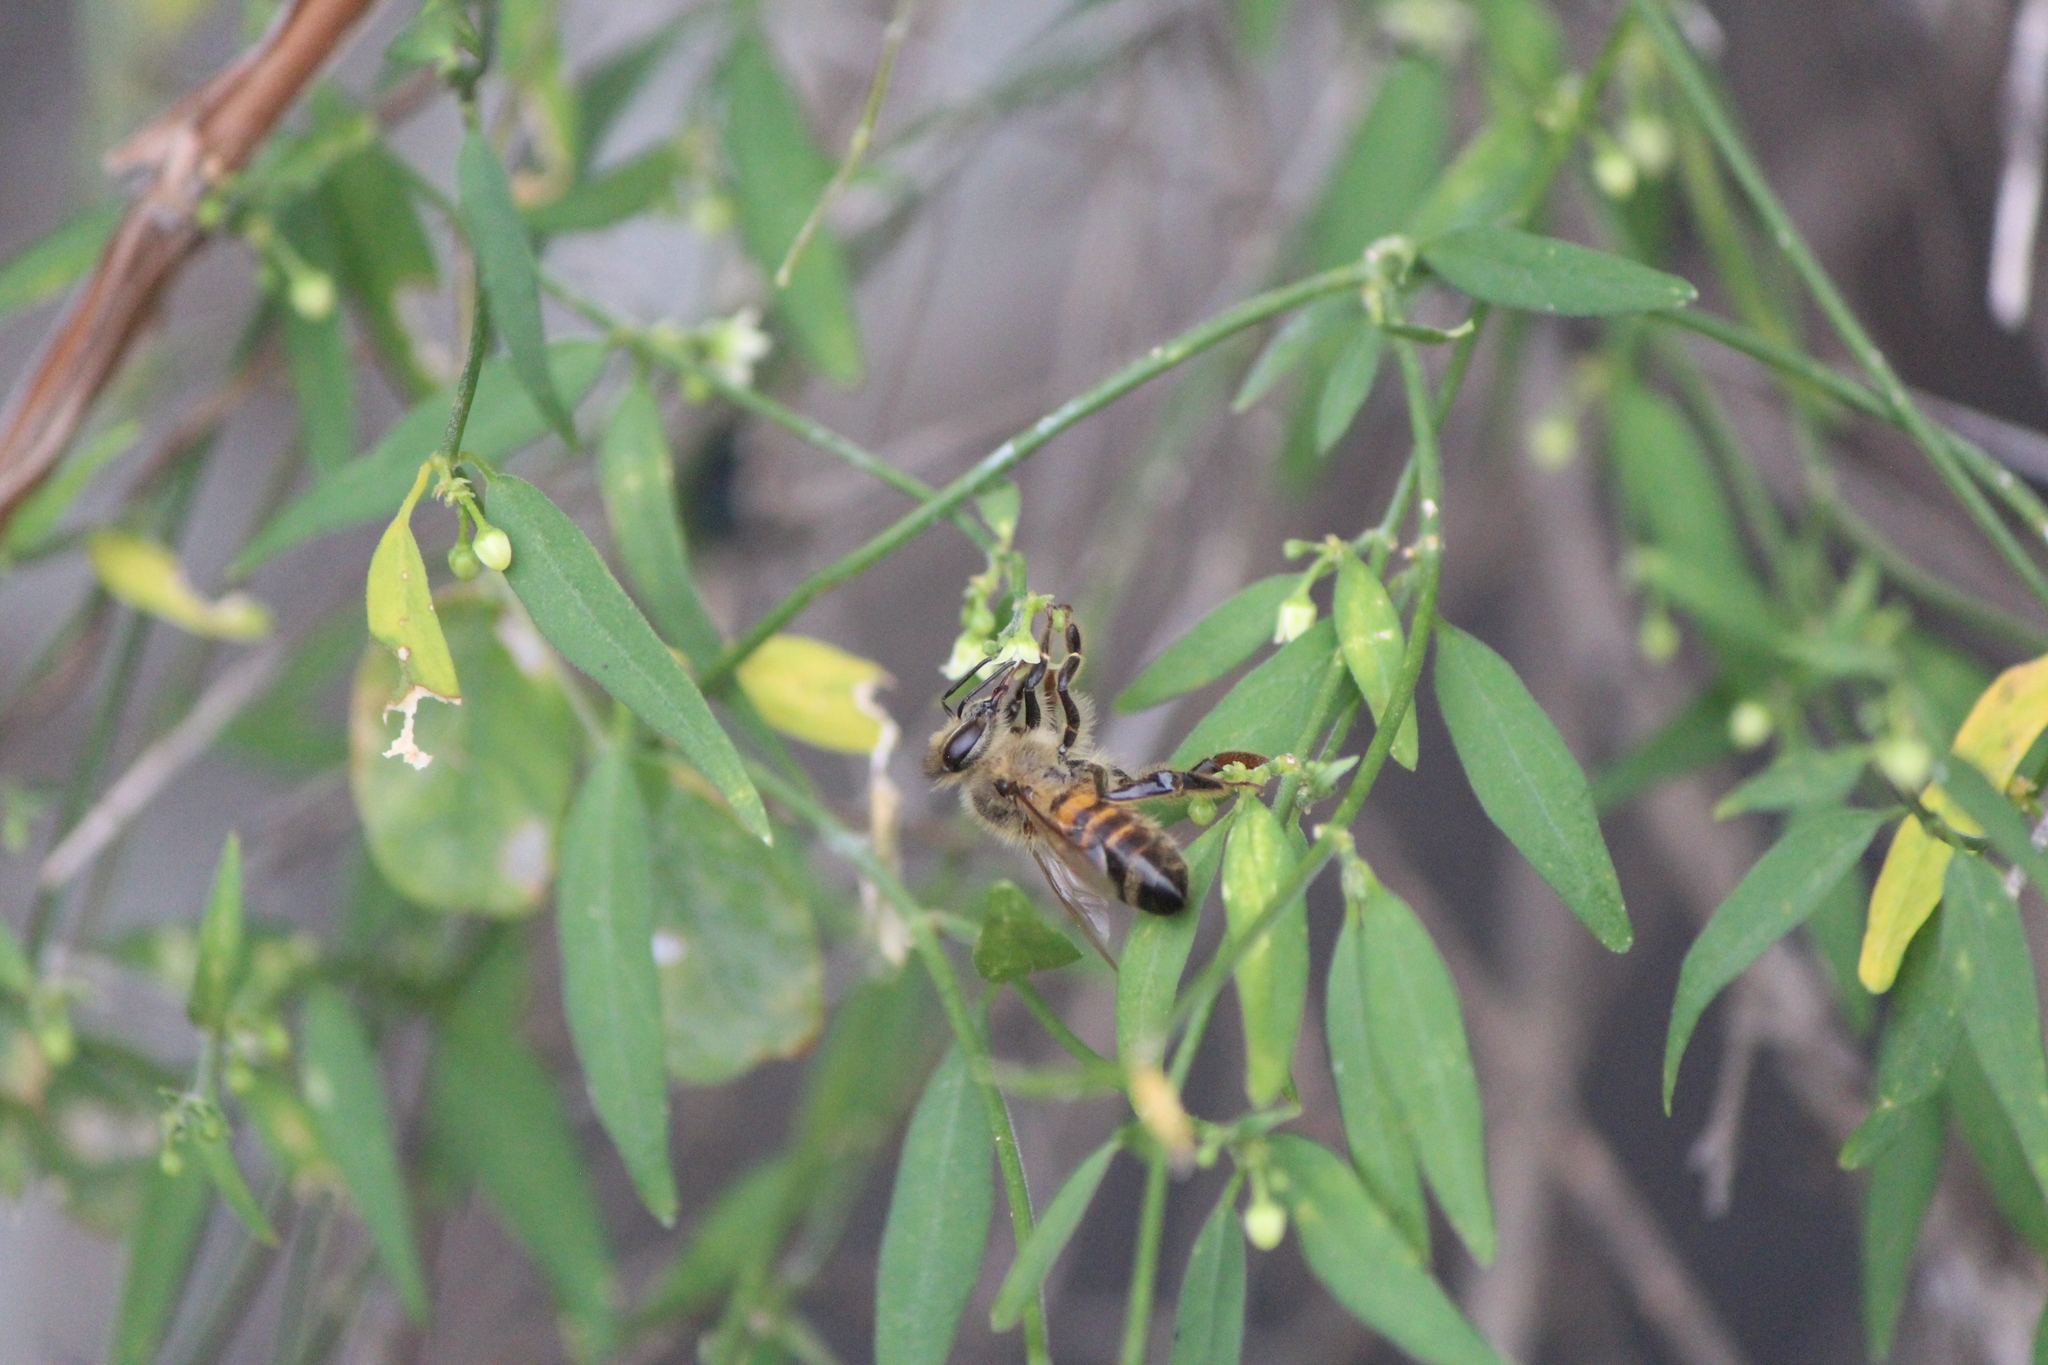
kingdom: Animalia
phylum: Arthropoda
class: Insecta
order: Hymenoptera
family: Apidae
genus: Apis
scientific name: Apis mellifera
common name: Honey bee
